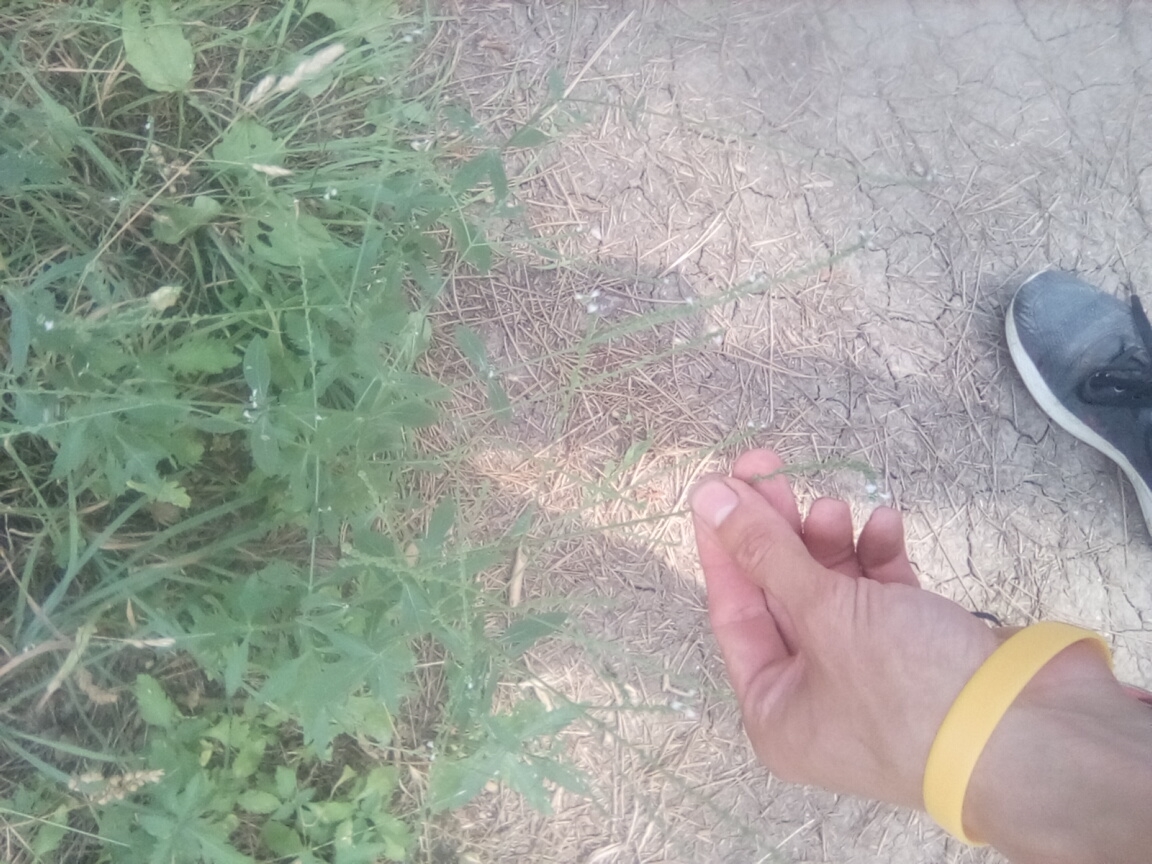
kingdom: Plantae
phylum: Tracheophyta
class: Magnoliopsida
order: Lamiales
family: Verbenaceae
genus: Verbena
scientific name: Verbena officinalis
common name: Vervain
